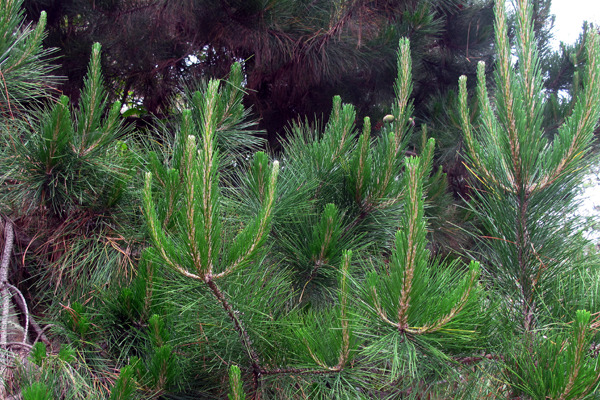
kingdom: Plantae
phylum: Tracheophyta
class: Pinopsida
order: Pinales
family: Pinaceae
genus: Pinus
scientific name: Pinus radiata
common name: Monterey pine
